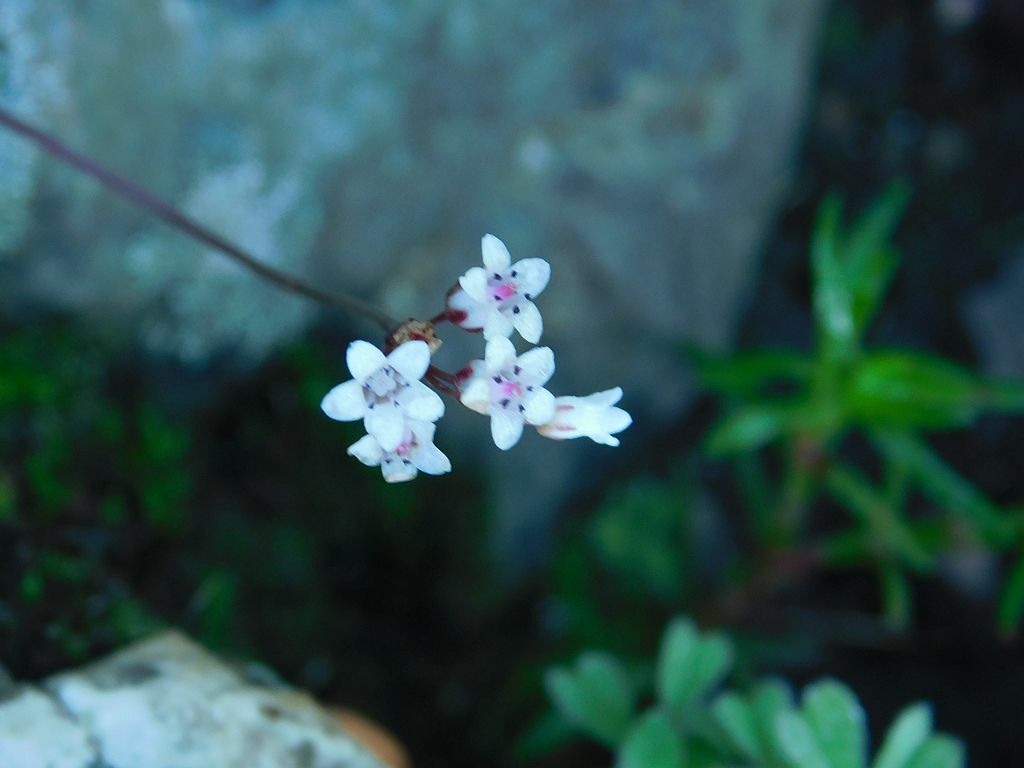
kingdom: Plantae
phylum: Tracheophyta
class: Magnoliopsida
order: Saxifragales
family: Crassulaceae
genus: Crassula
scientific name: Crassula saxifraga
